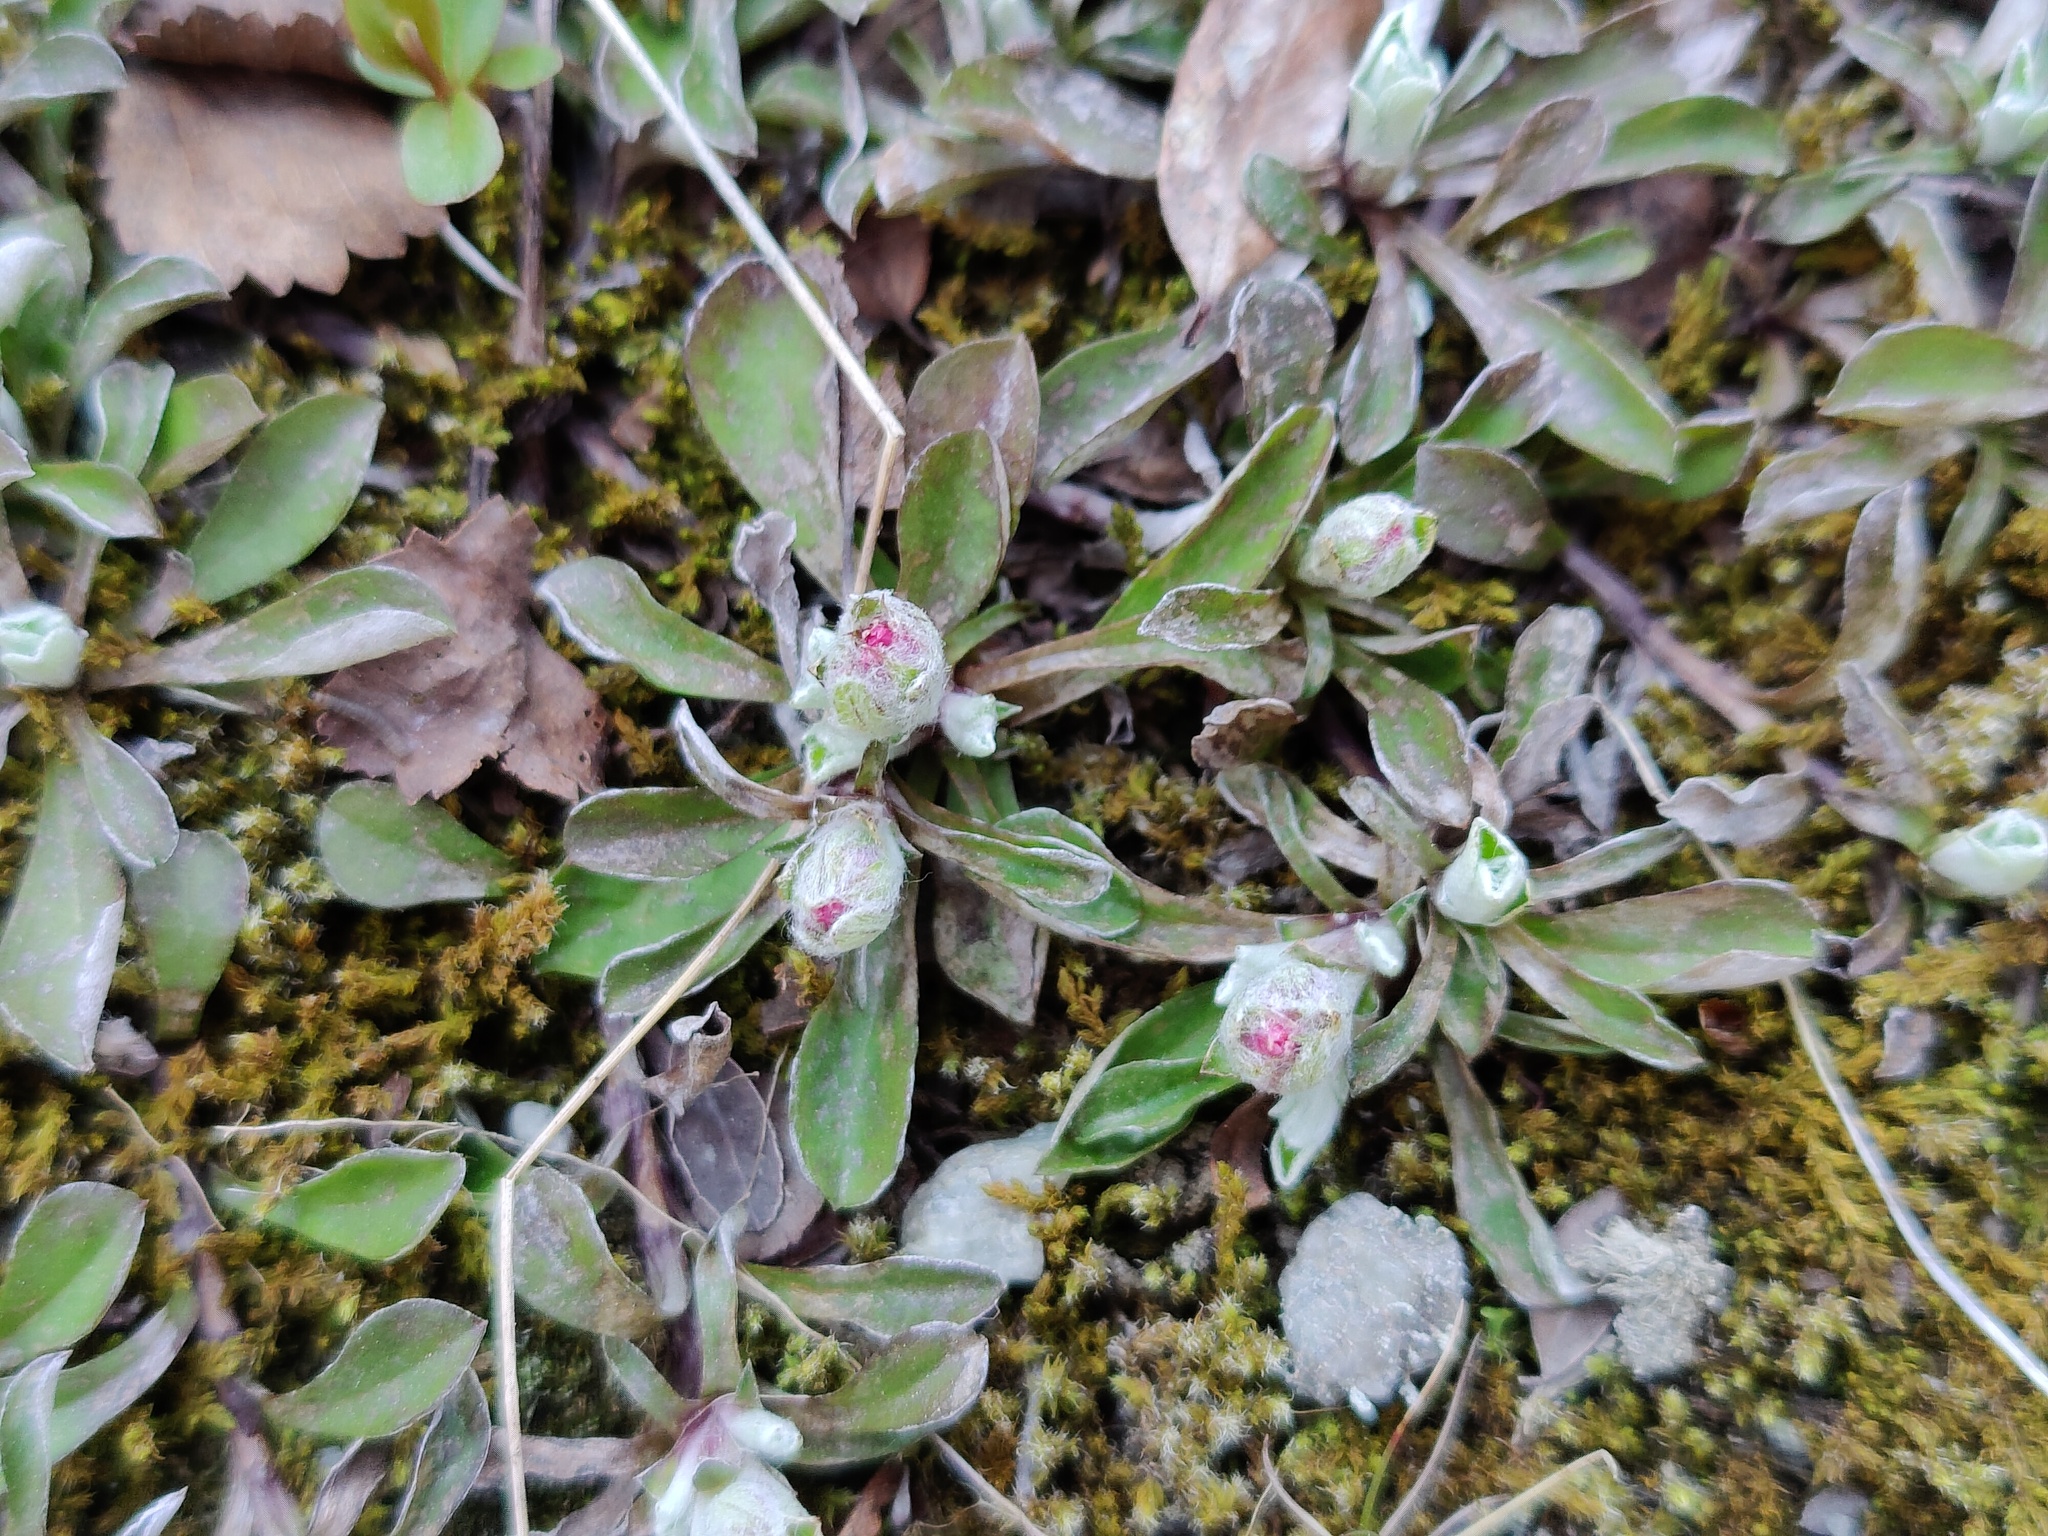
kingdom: Plantae
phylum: Tracheophyta
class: Magnoliopsida
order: Asterales
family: Asteraceae
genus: Antennaria
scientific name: Antennaria dioica
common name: Mountain everlasting
